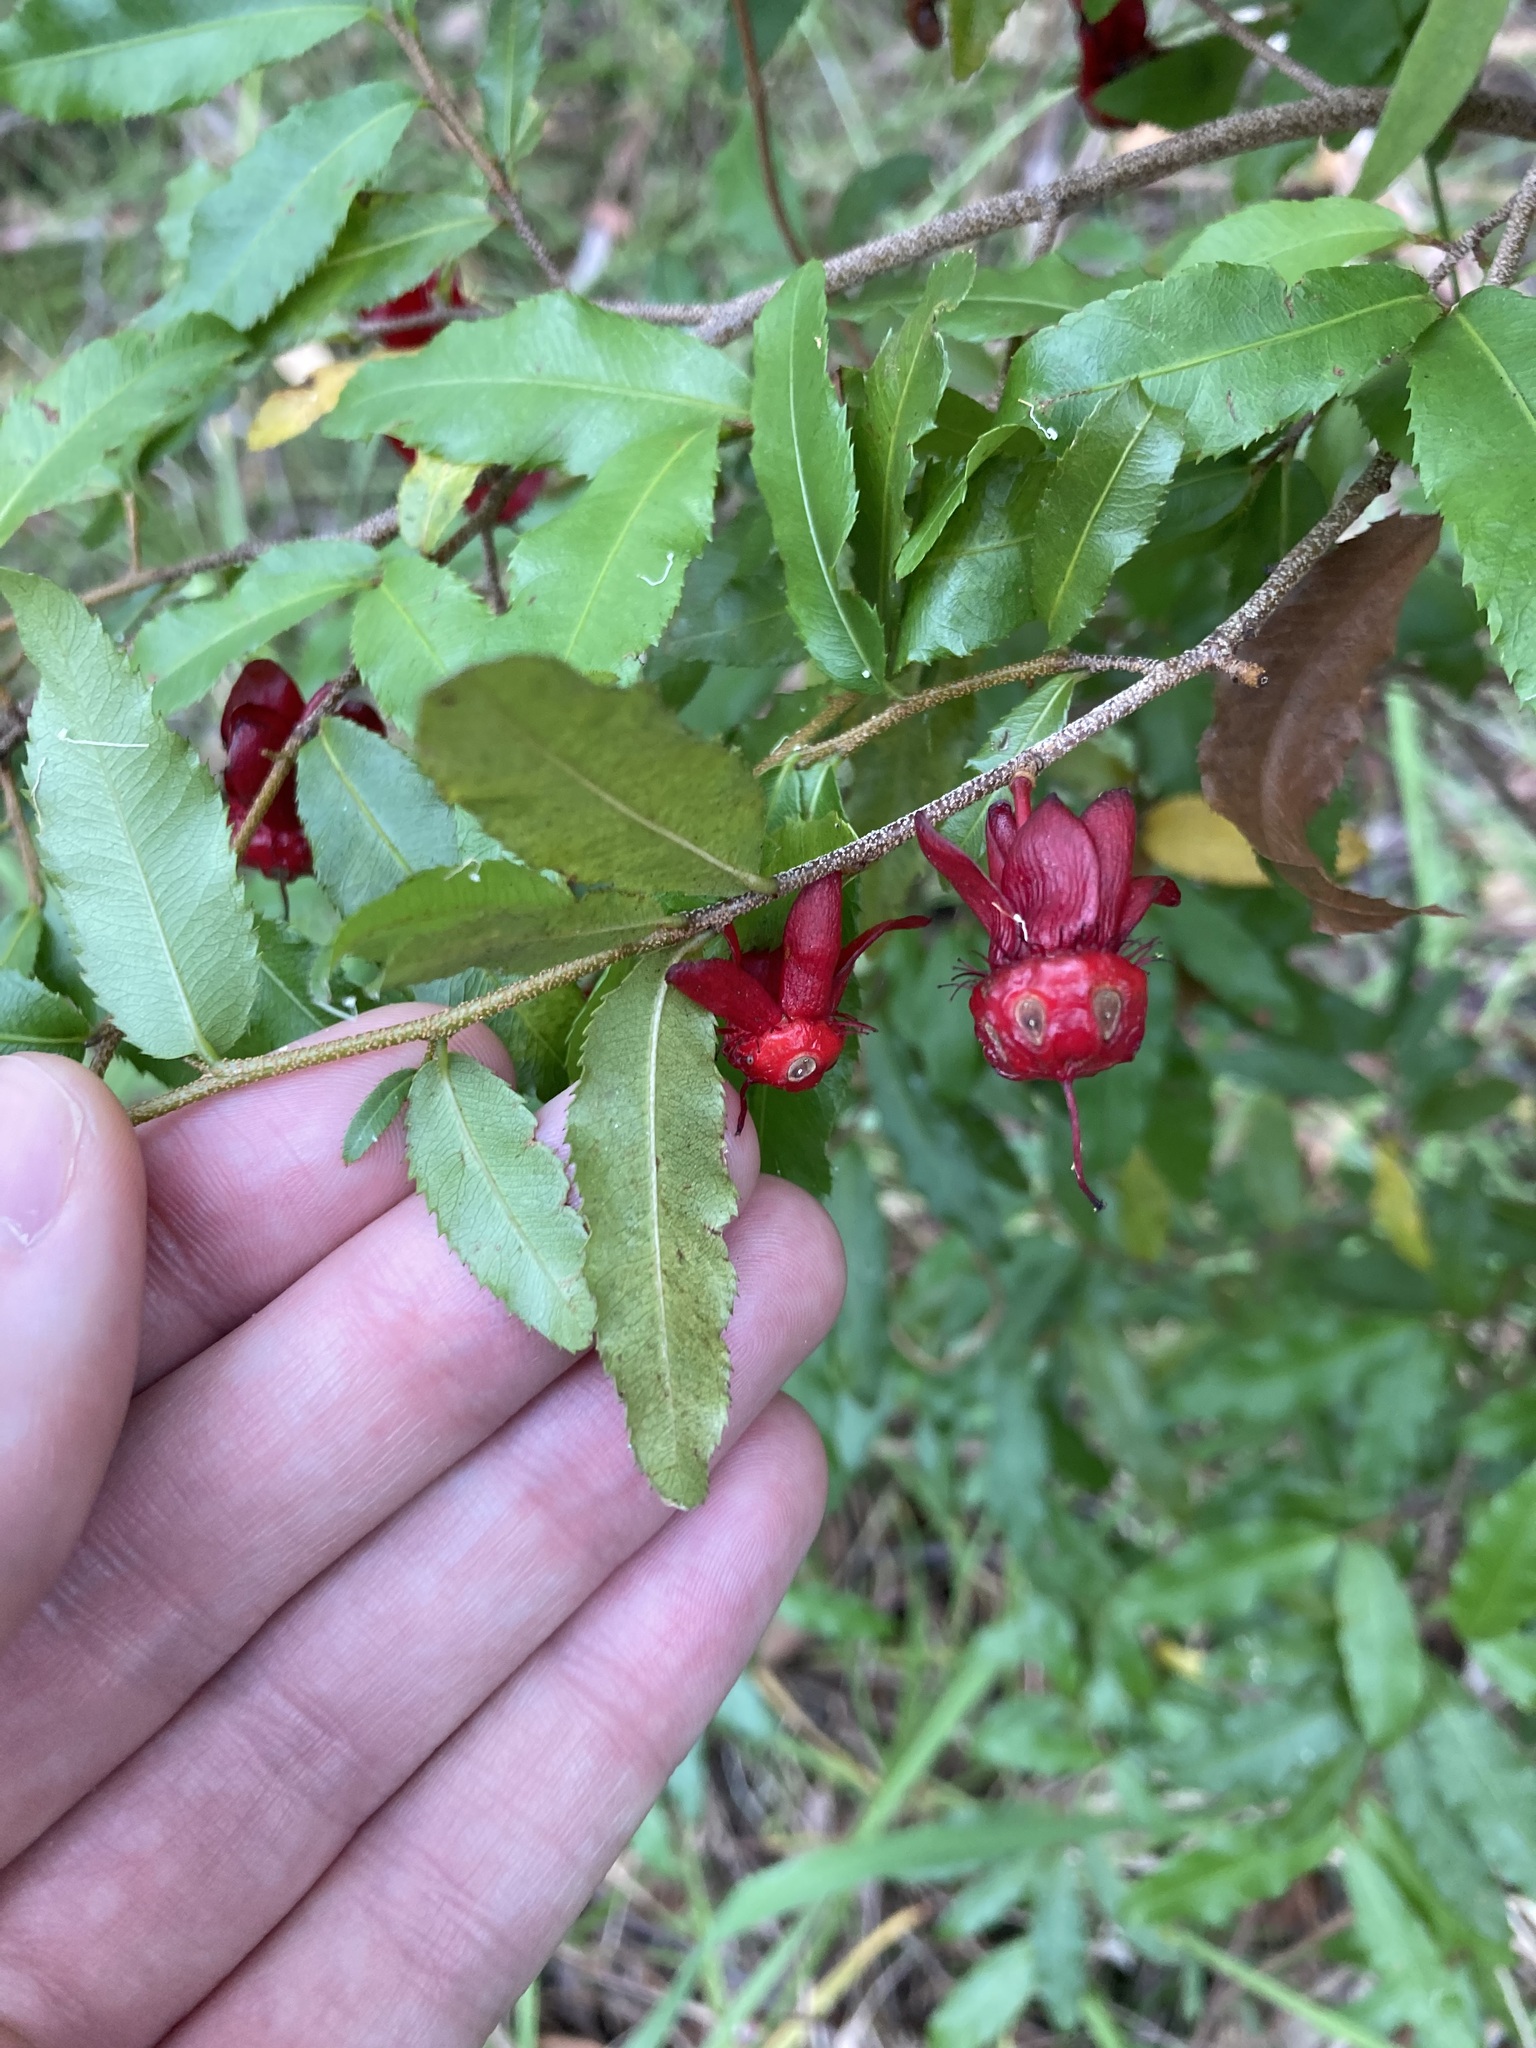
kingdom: Plantae
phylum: Tracheophyta
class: Magnoliopsida
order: Malpighiales
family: Ochnaceae
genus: Ochna
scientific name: Ochna serrulata
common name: Mickey mouse plant
